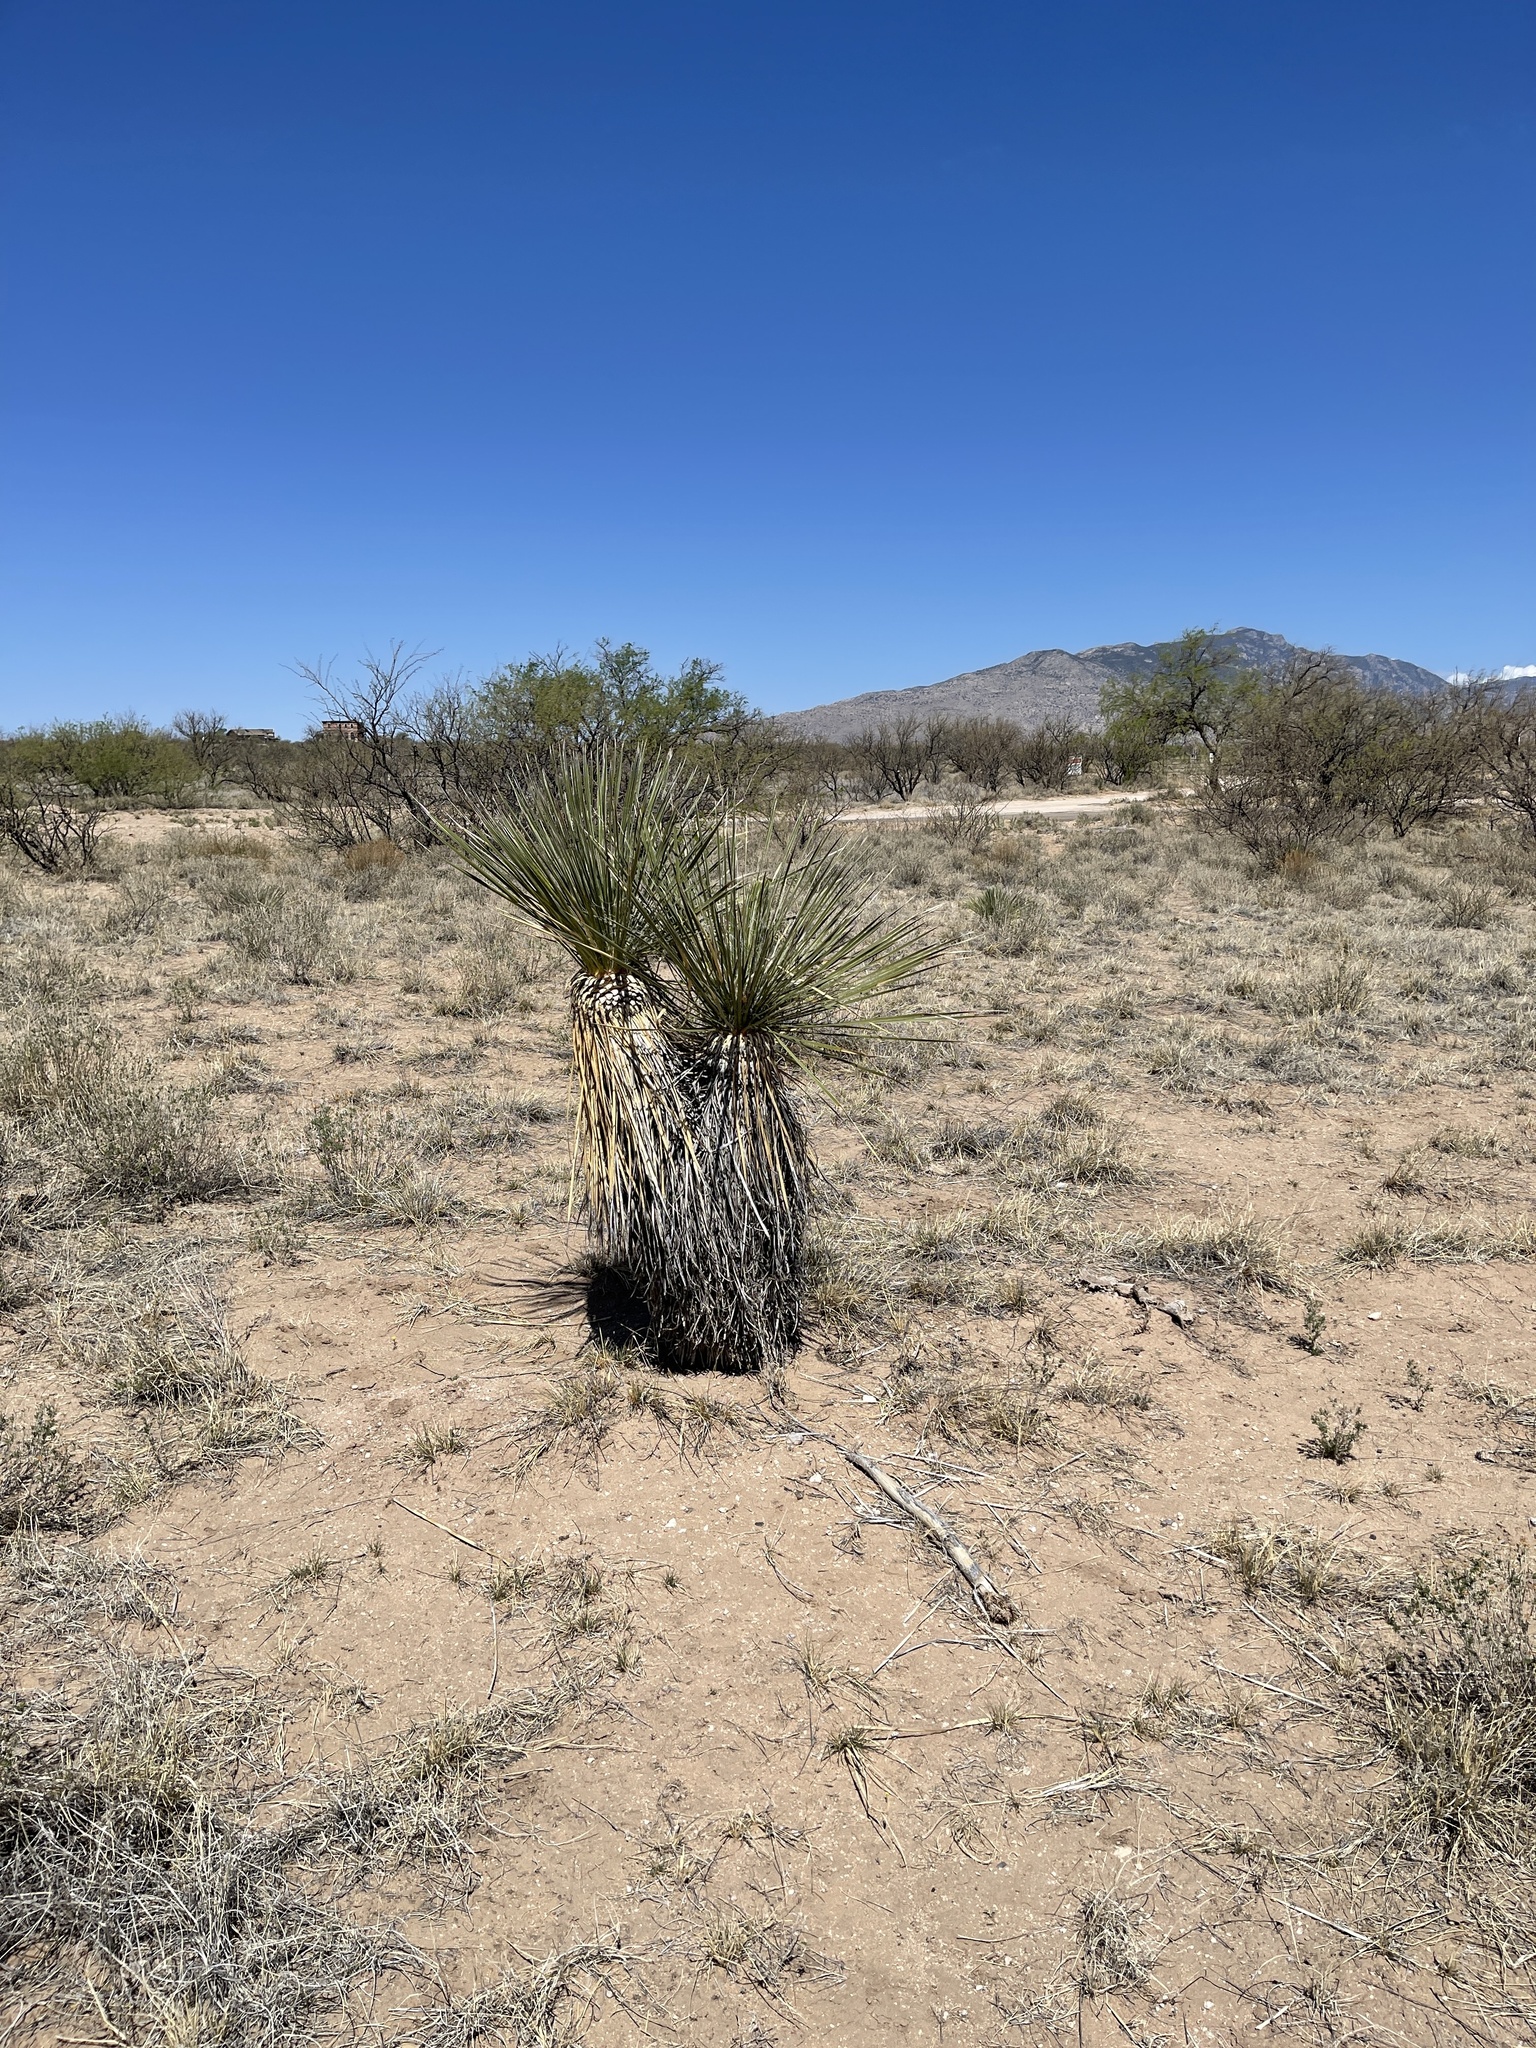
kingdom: Plantae
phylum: Tracheophyta
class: Liliopsida
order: Asparagales
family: Asparagaceae
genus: Yucca
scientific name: Yucca elata
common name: Palmella
